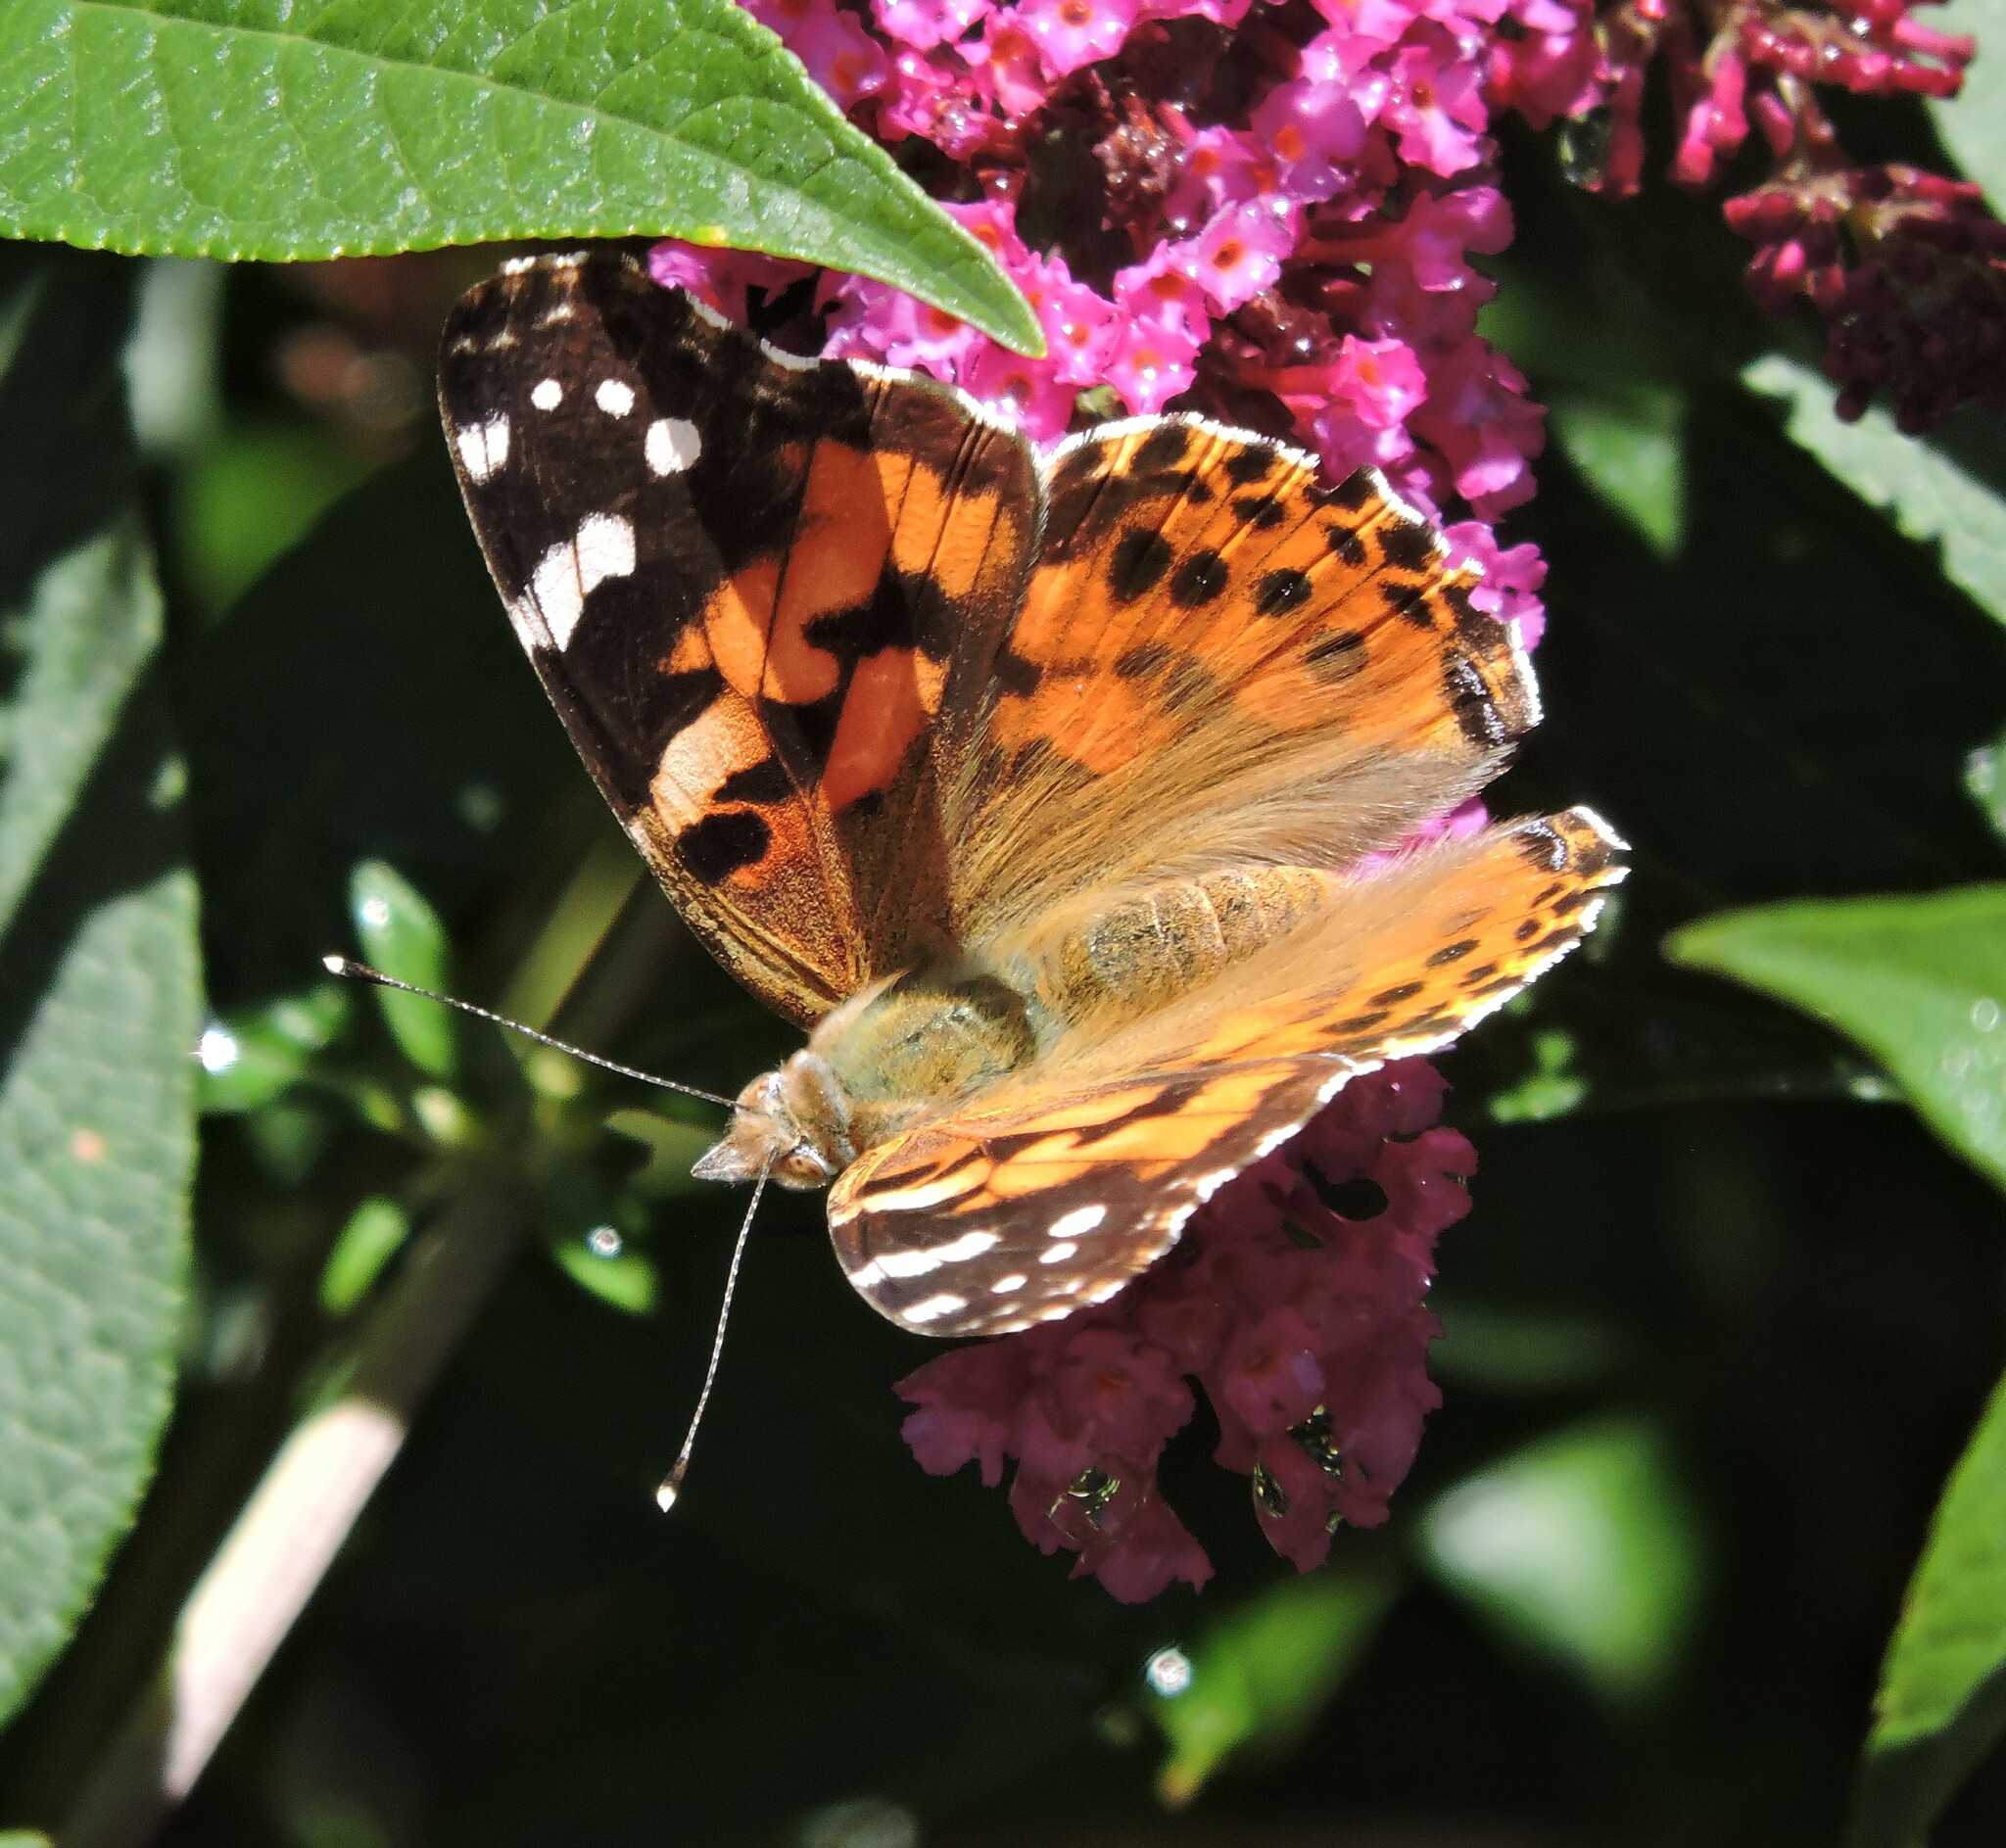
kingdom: Animalia
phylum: Arthropoda
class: Insecta
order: Lepidoptera
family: Nymphalidae
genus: Vanessa
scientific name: Vanessa cardui
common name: Painted lady
